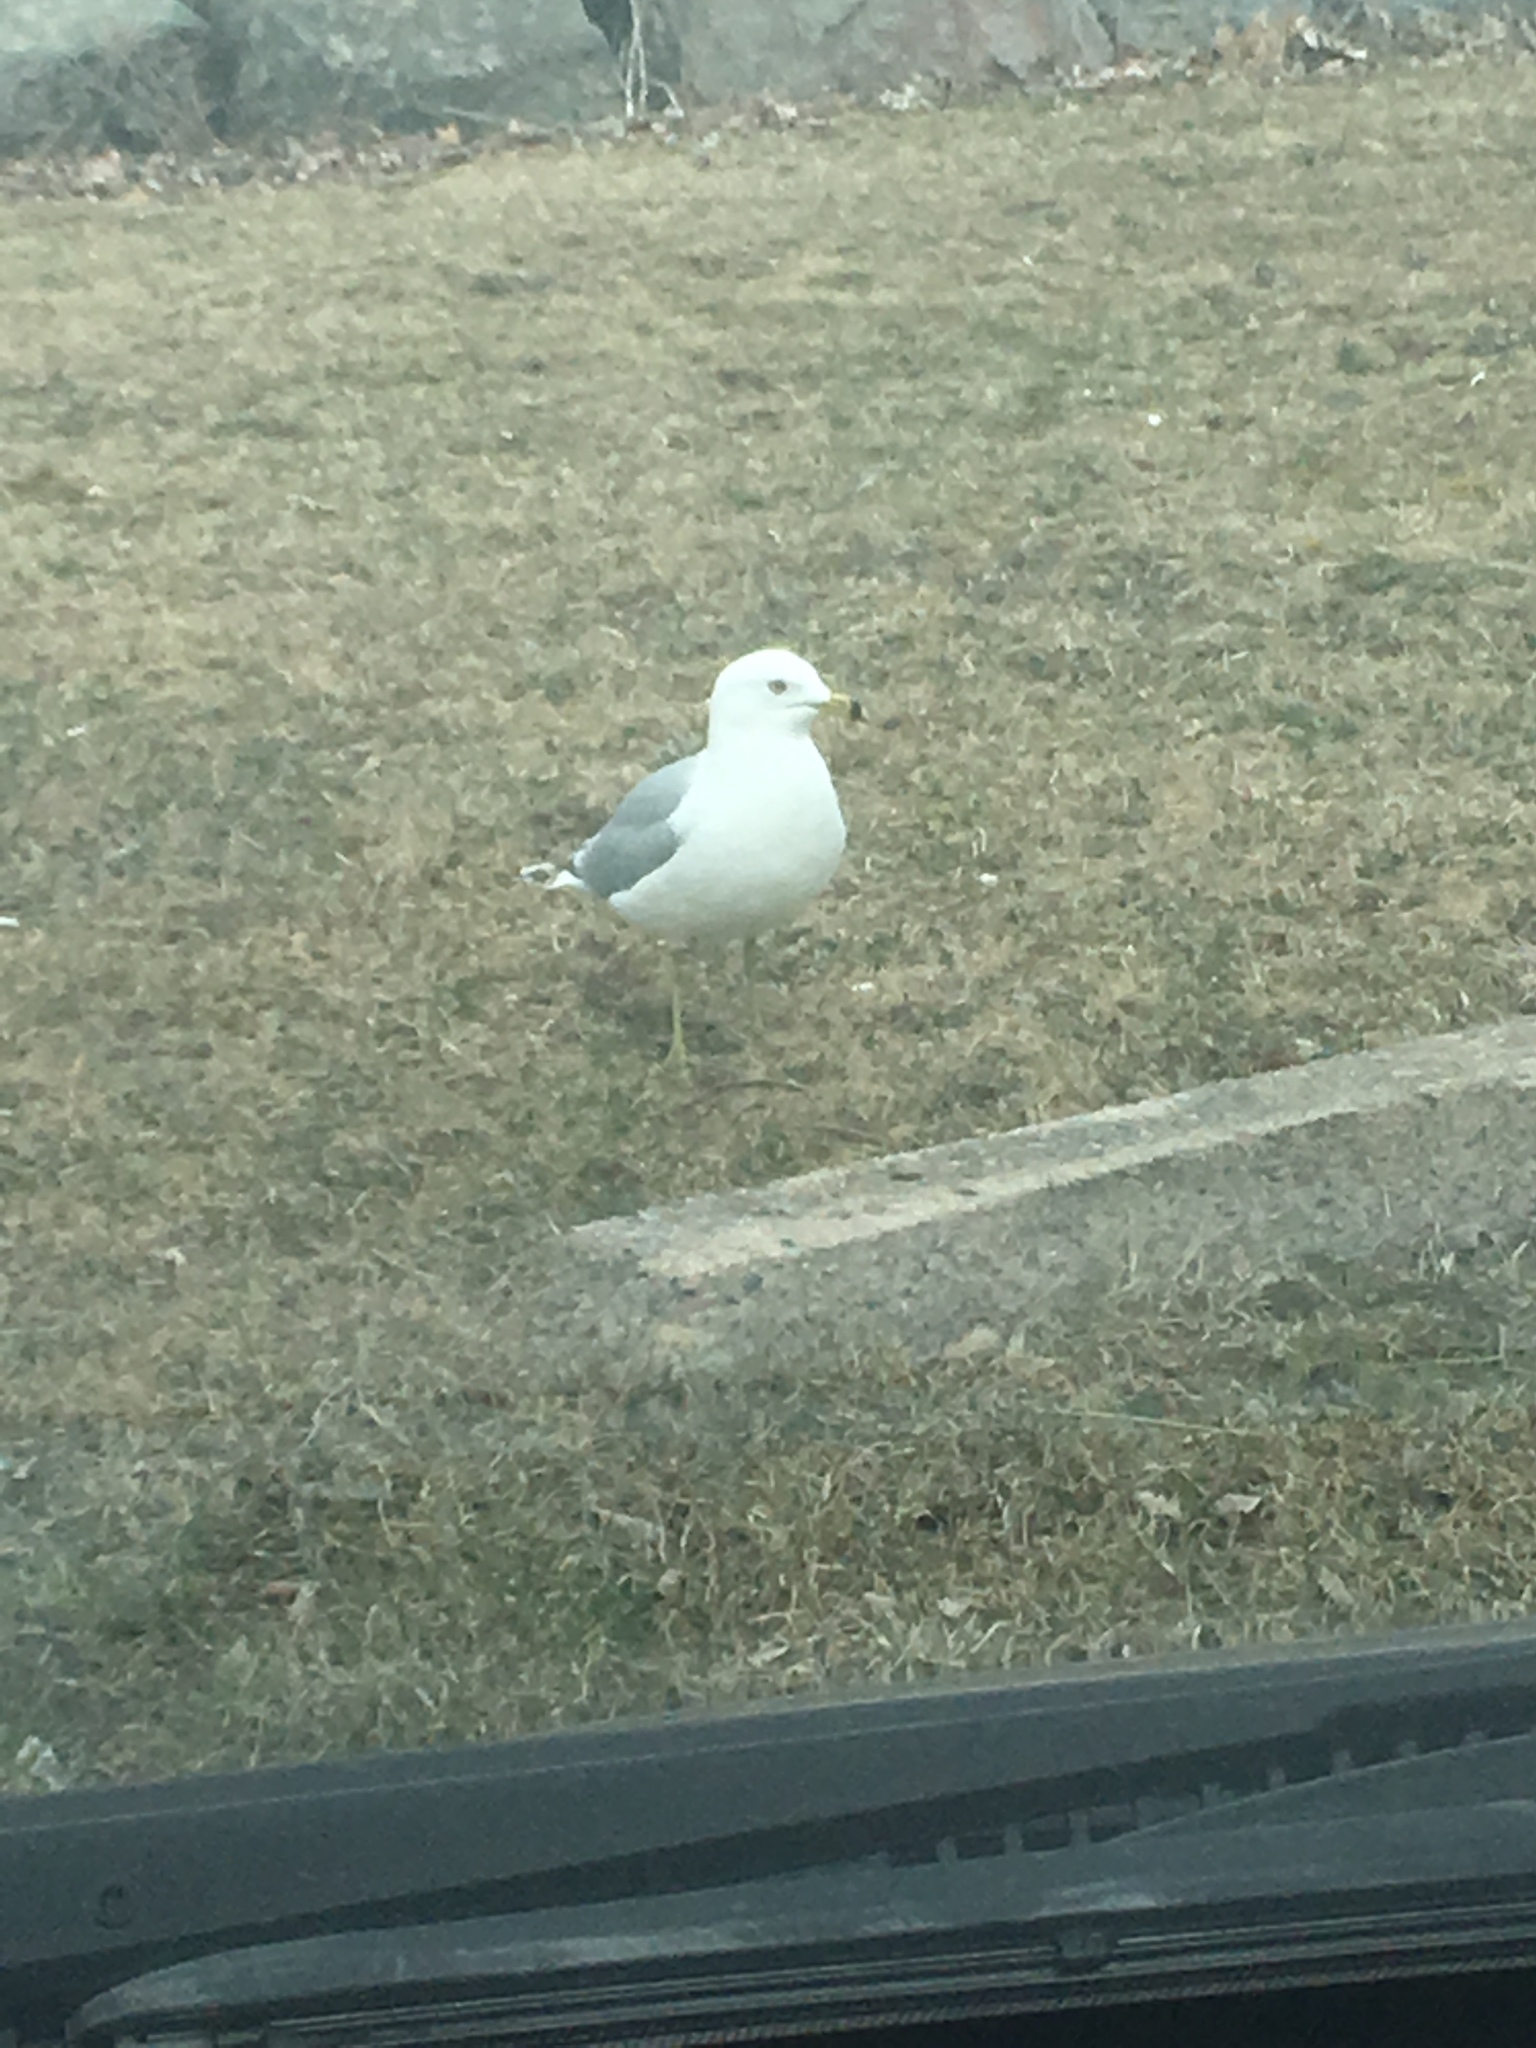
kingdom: Animalia
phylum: Chordata
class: Aves
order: Charadriiformes
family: Laridae
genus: Larus
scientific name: Larus delawarensis
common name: Ring-billed gull
